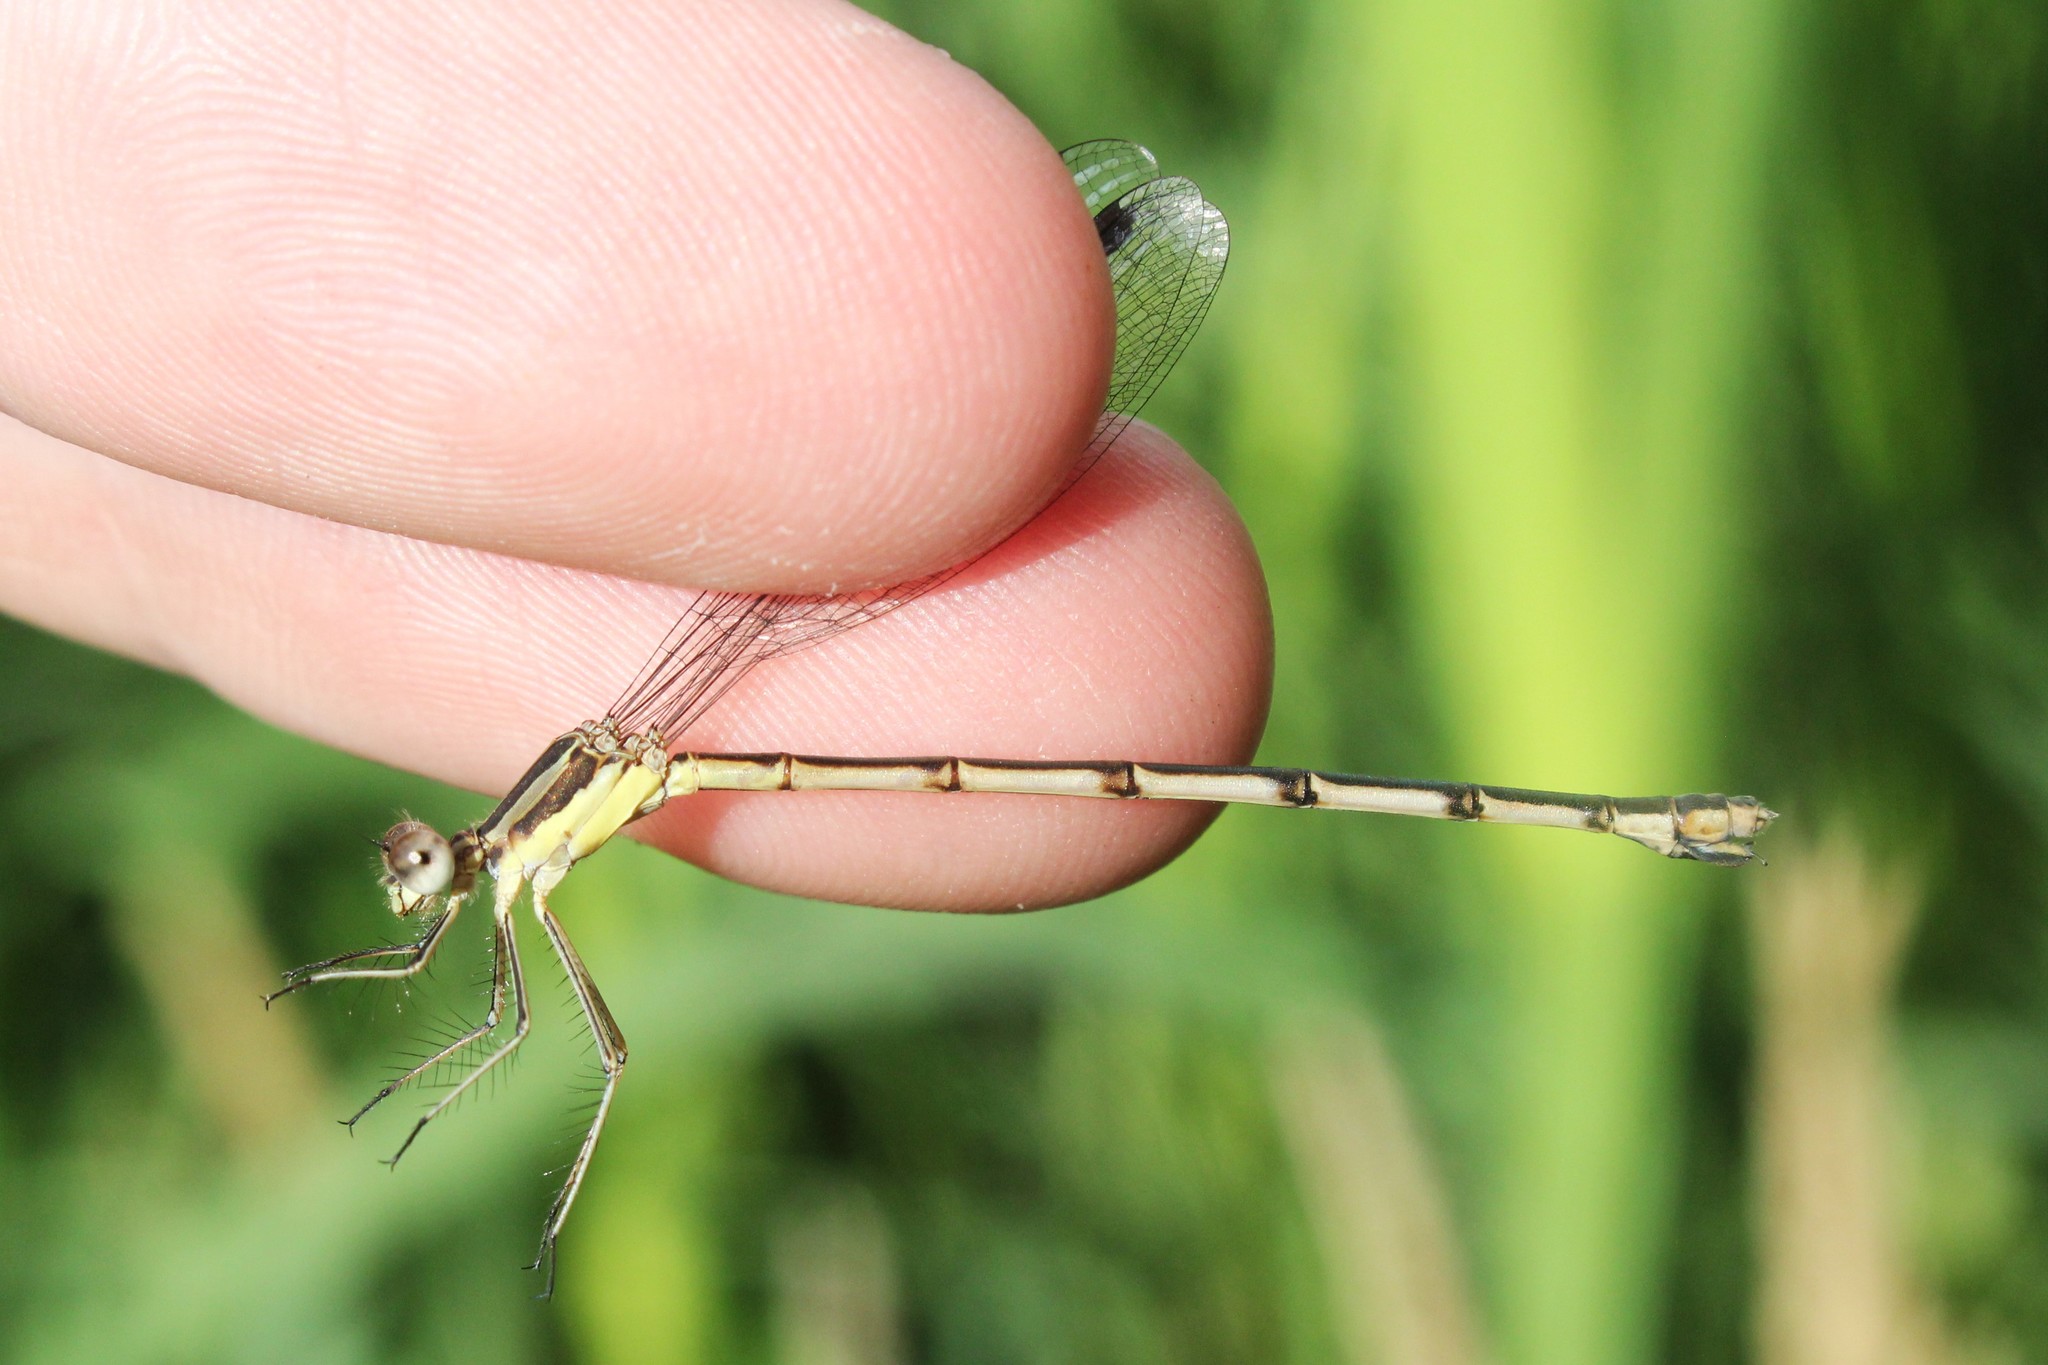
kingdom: Animalia
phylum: Arthropoda
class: Insecta
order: Odonata
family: Lestidae
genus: Lestes
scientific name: Lestes rectangularis
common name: Slender spreadwing
